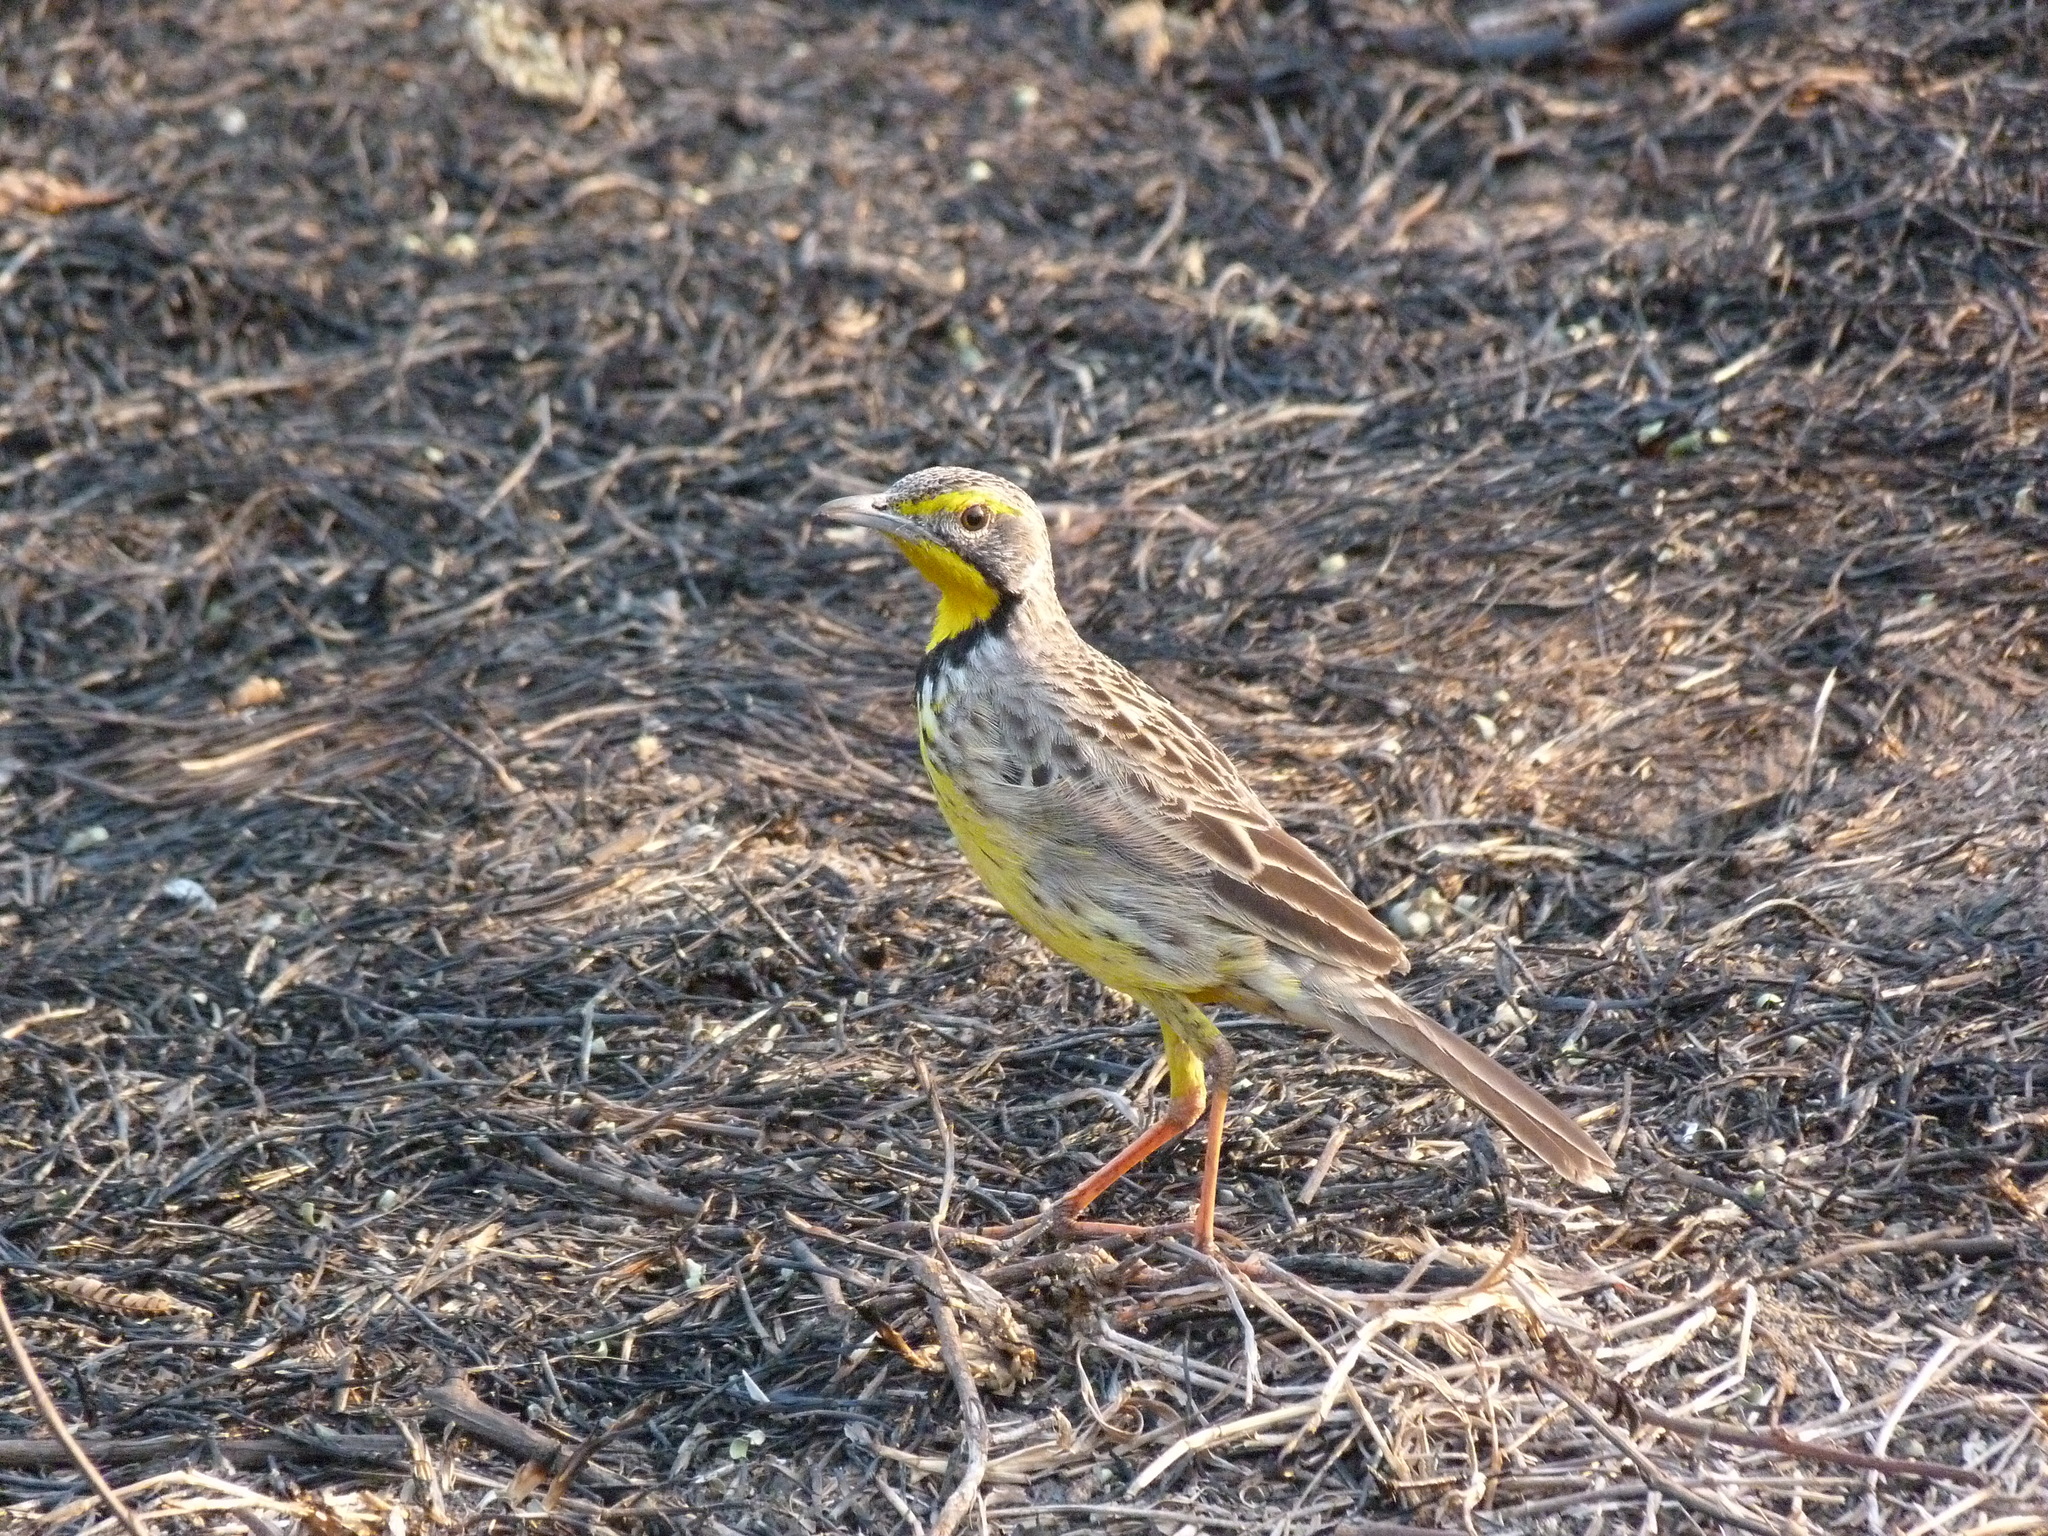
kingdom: Animalia
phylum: Chordata
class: Aves
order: Passeriformes
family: Motacillidae
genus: Macronyx
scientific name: Macronyx croceus
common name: Yellow-throated longclaw
